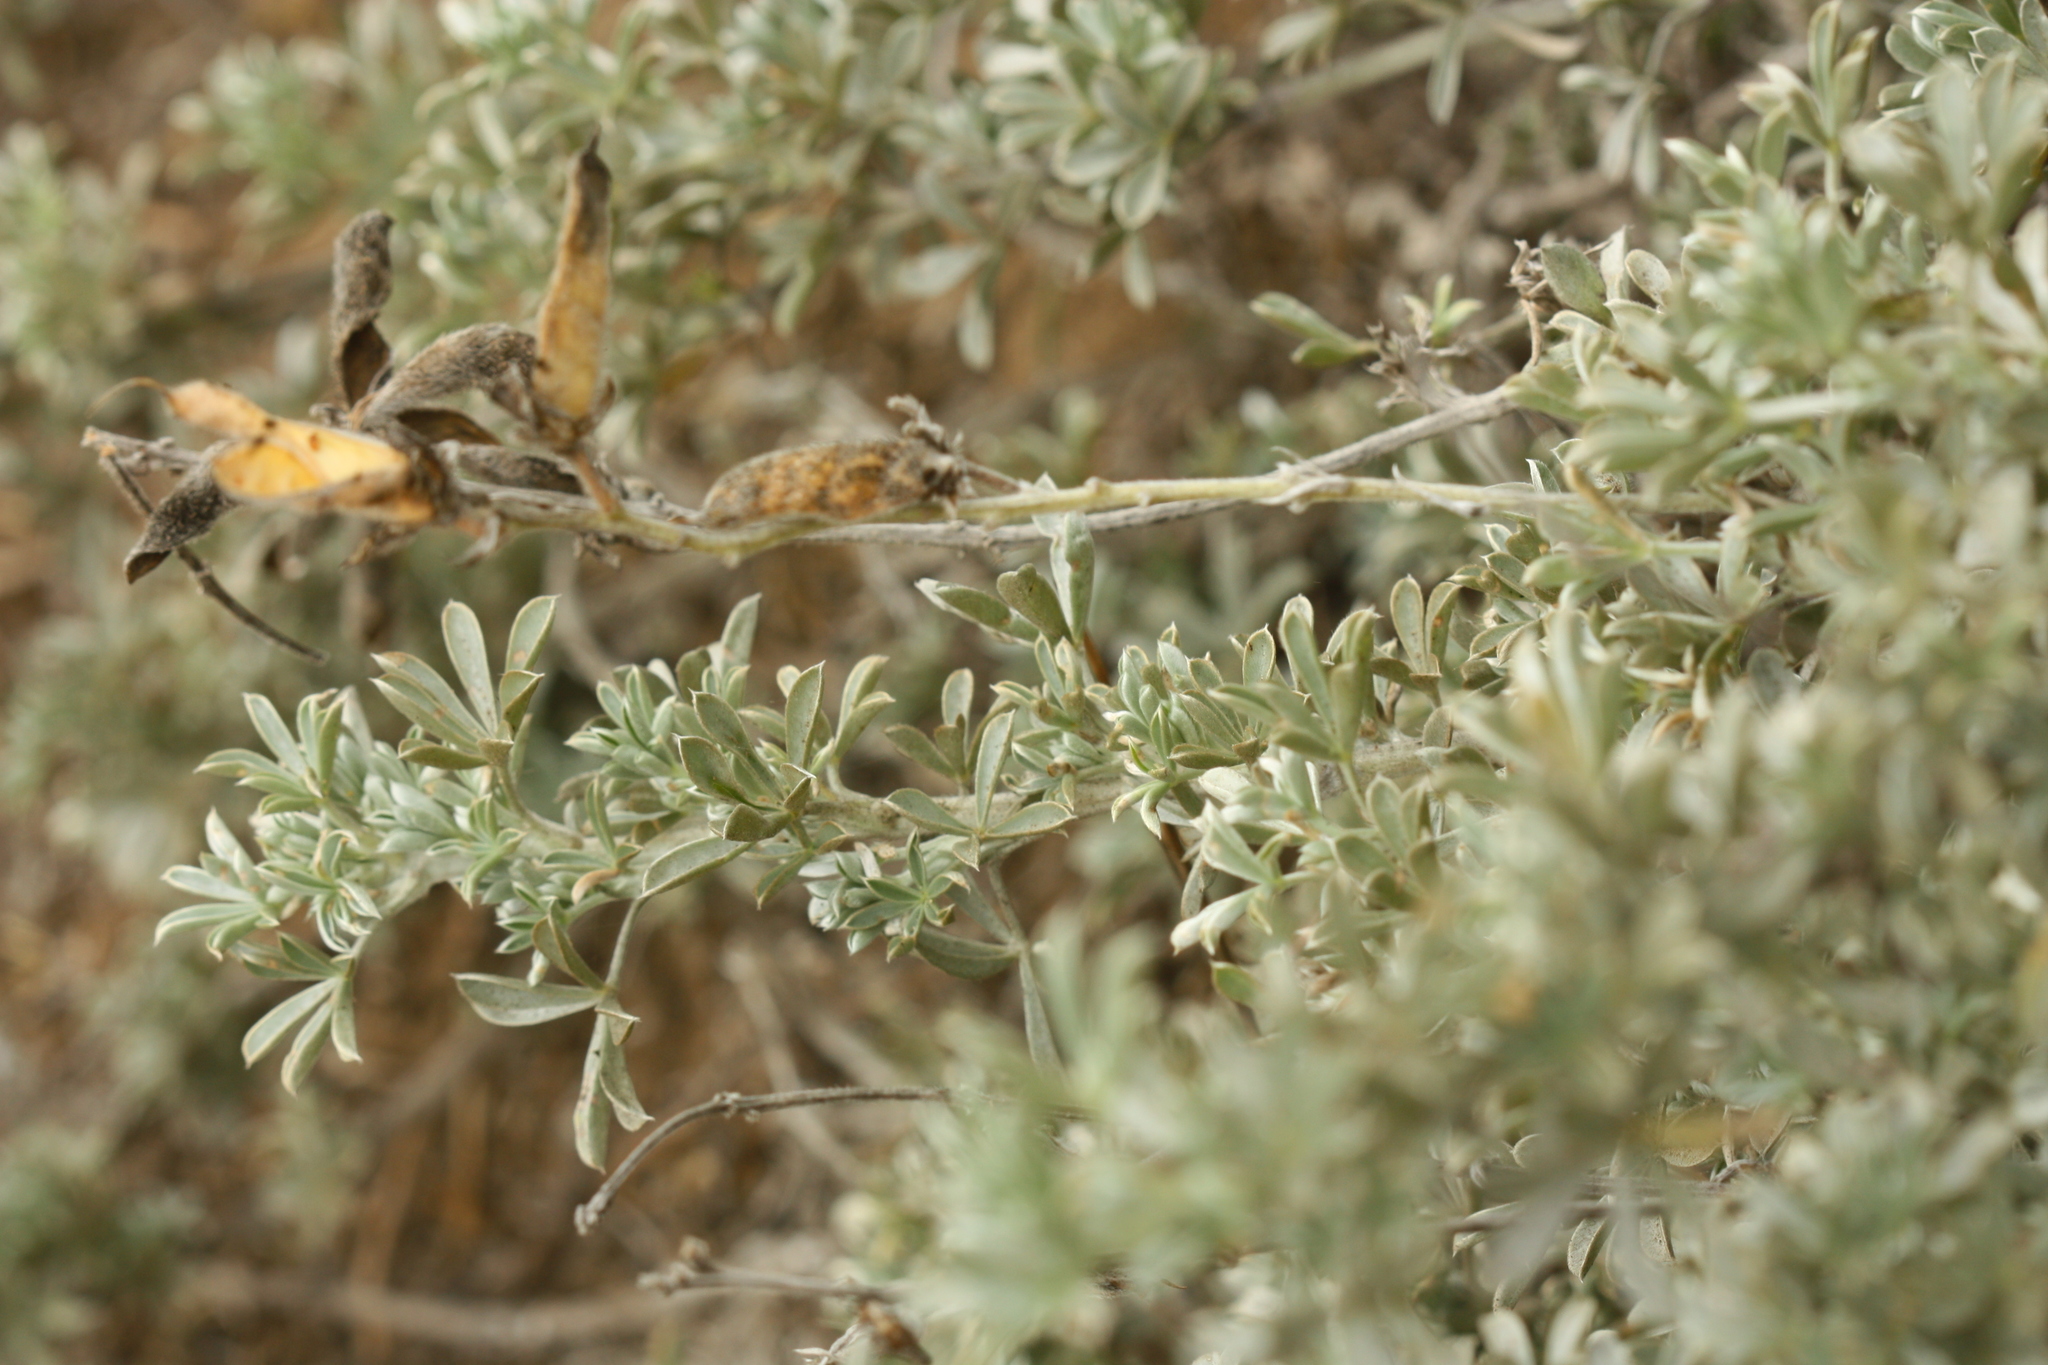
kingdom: Plantae
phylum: Tracheophyta
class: Magnoliopsida
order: Fabales
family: Fabaceae
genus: Lupinus
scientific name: Lupinus chamissonis
